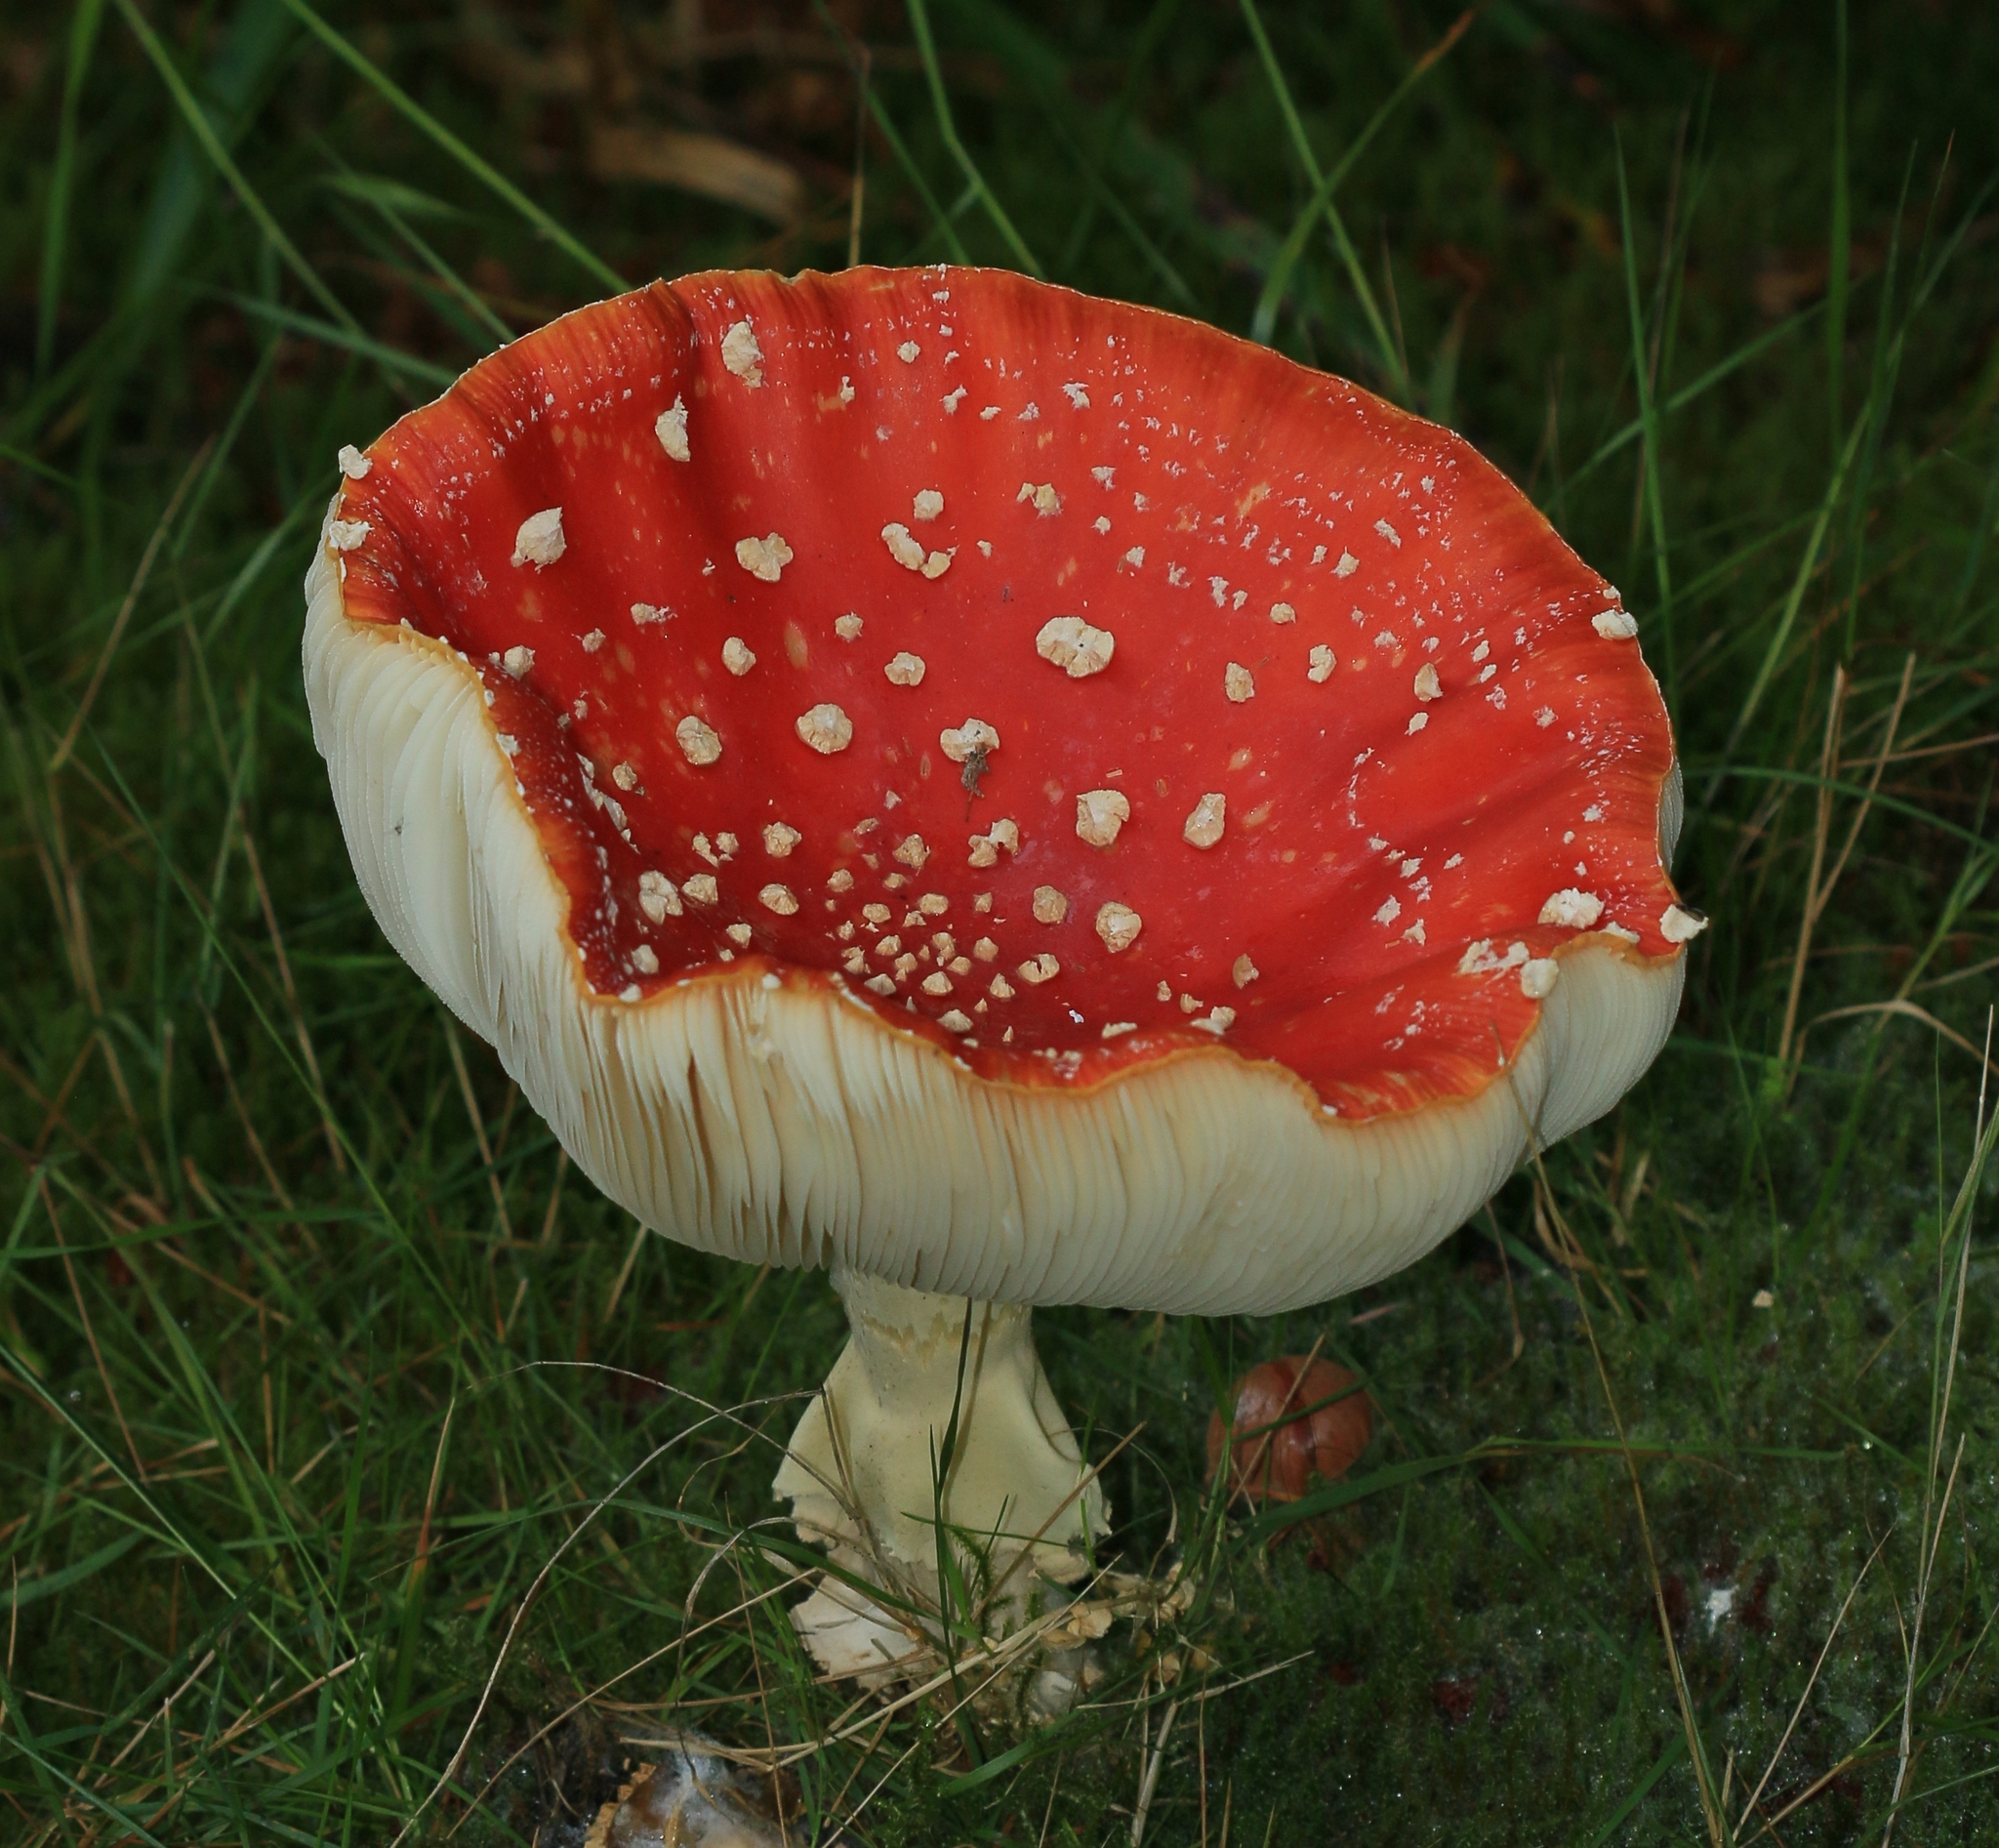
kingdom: Fungi
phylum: Basidiomycota
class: Agaricomycetes
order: Agaricales
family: Amanitaceae
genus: Amanita
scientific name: Amanita muscaria
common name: Fly agaric
